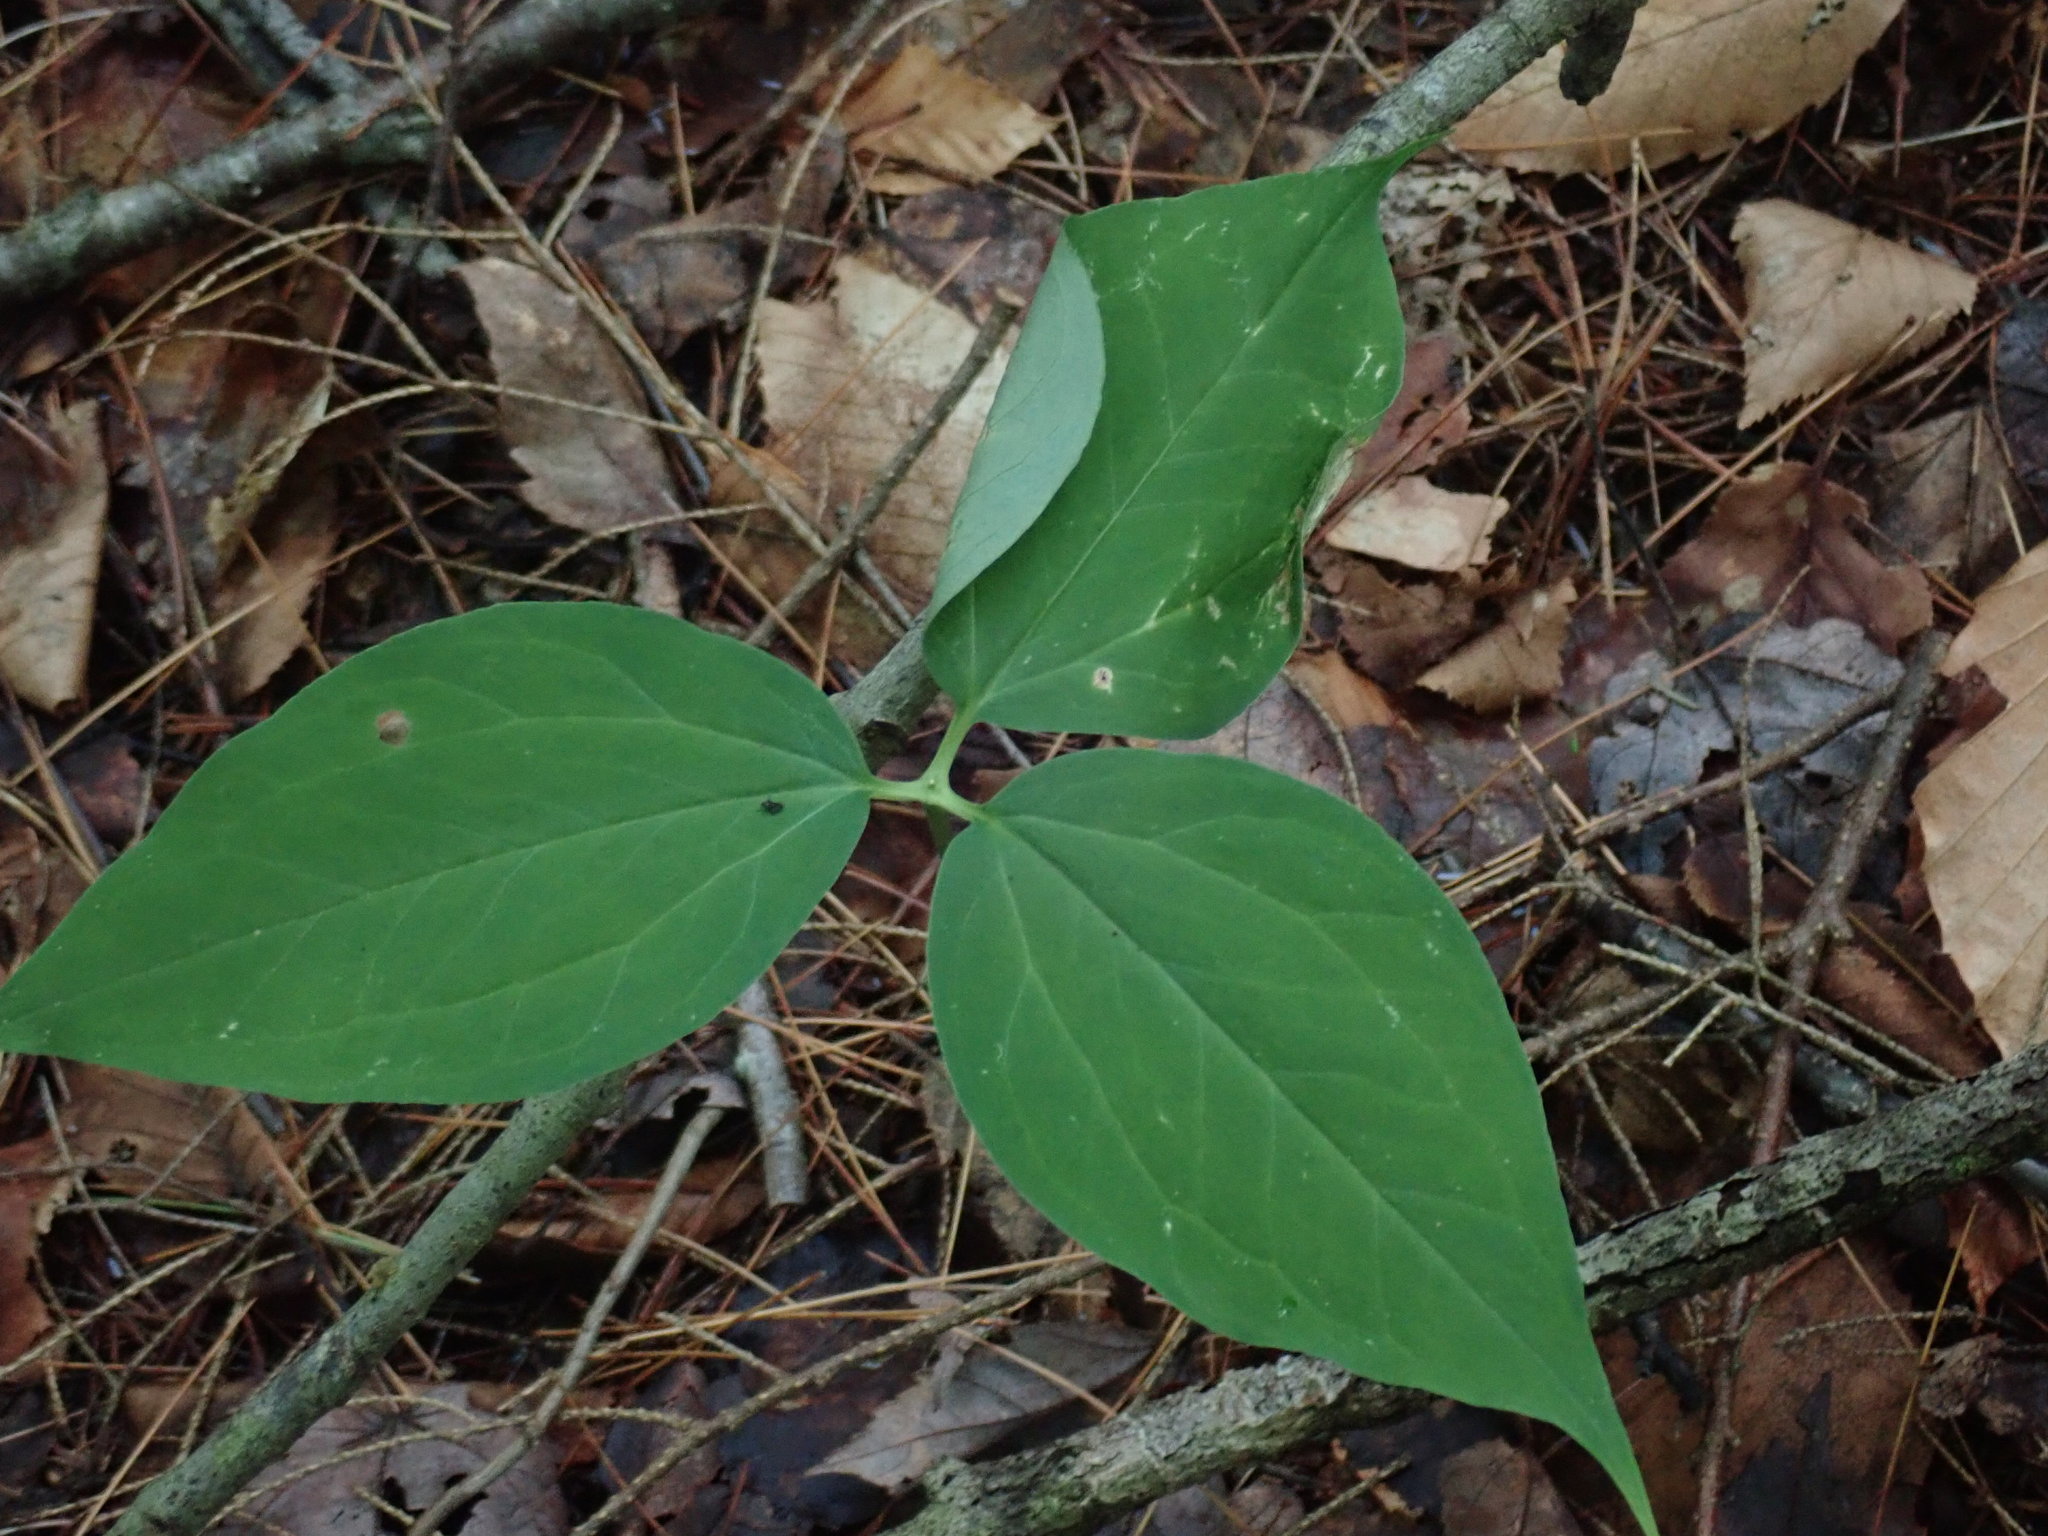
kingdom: Plantae
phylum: Tracheophyta
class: Liliopsida
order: Liliales
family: Melanthiaceae
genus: Trillium
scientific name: Trillium undulatum
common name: Paint trillium
